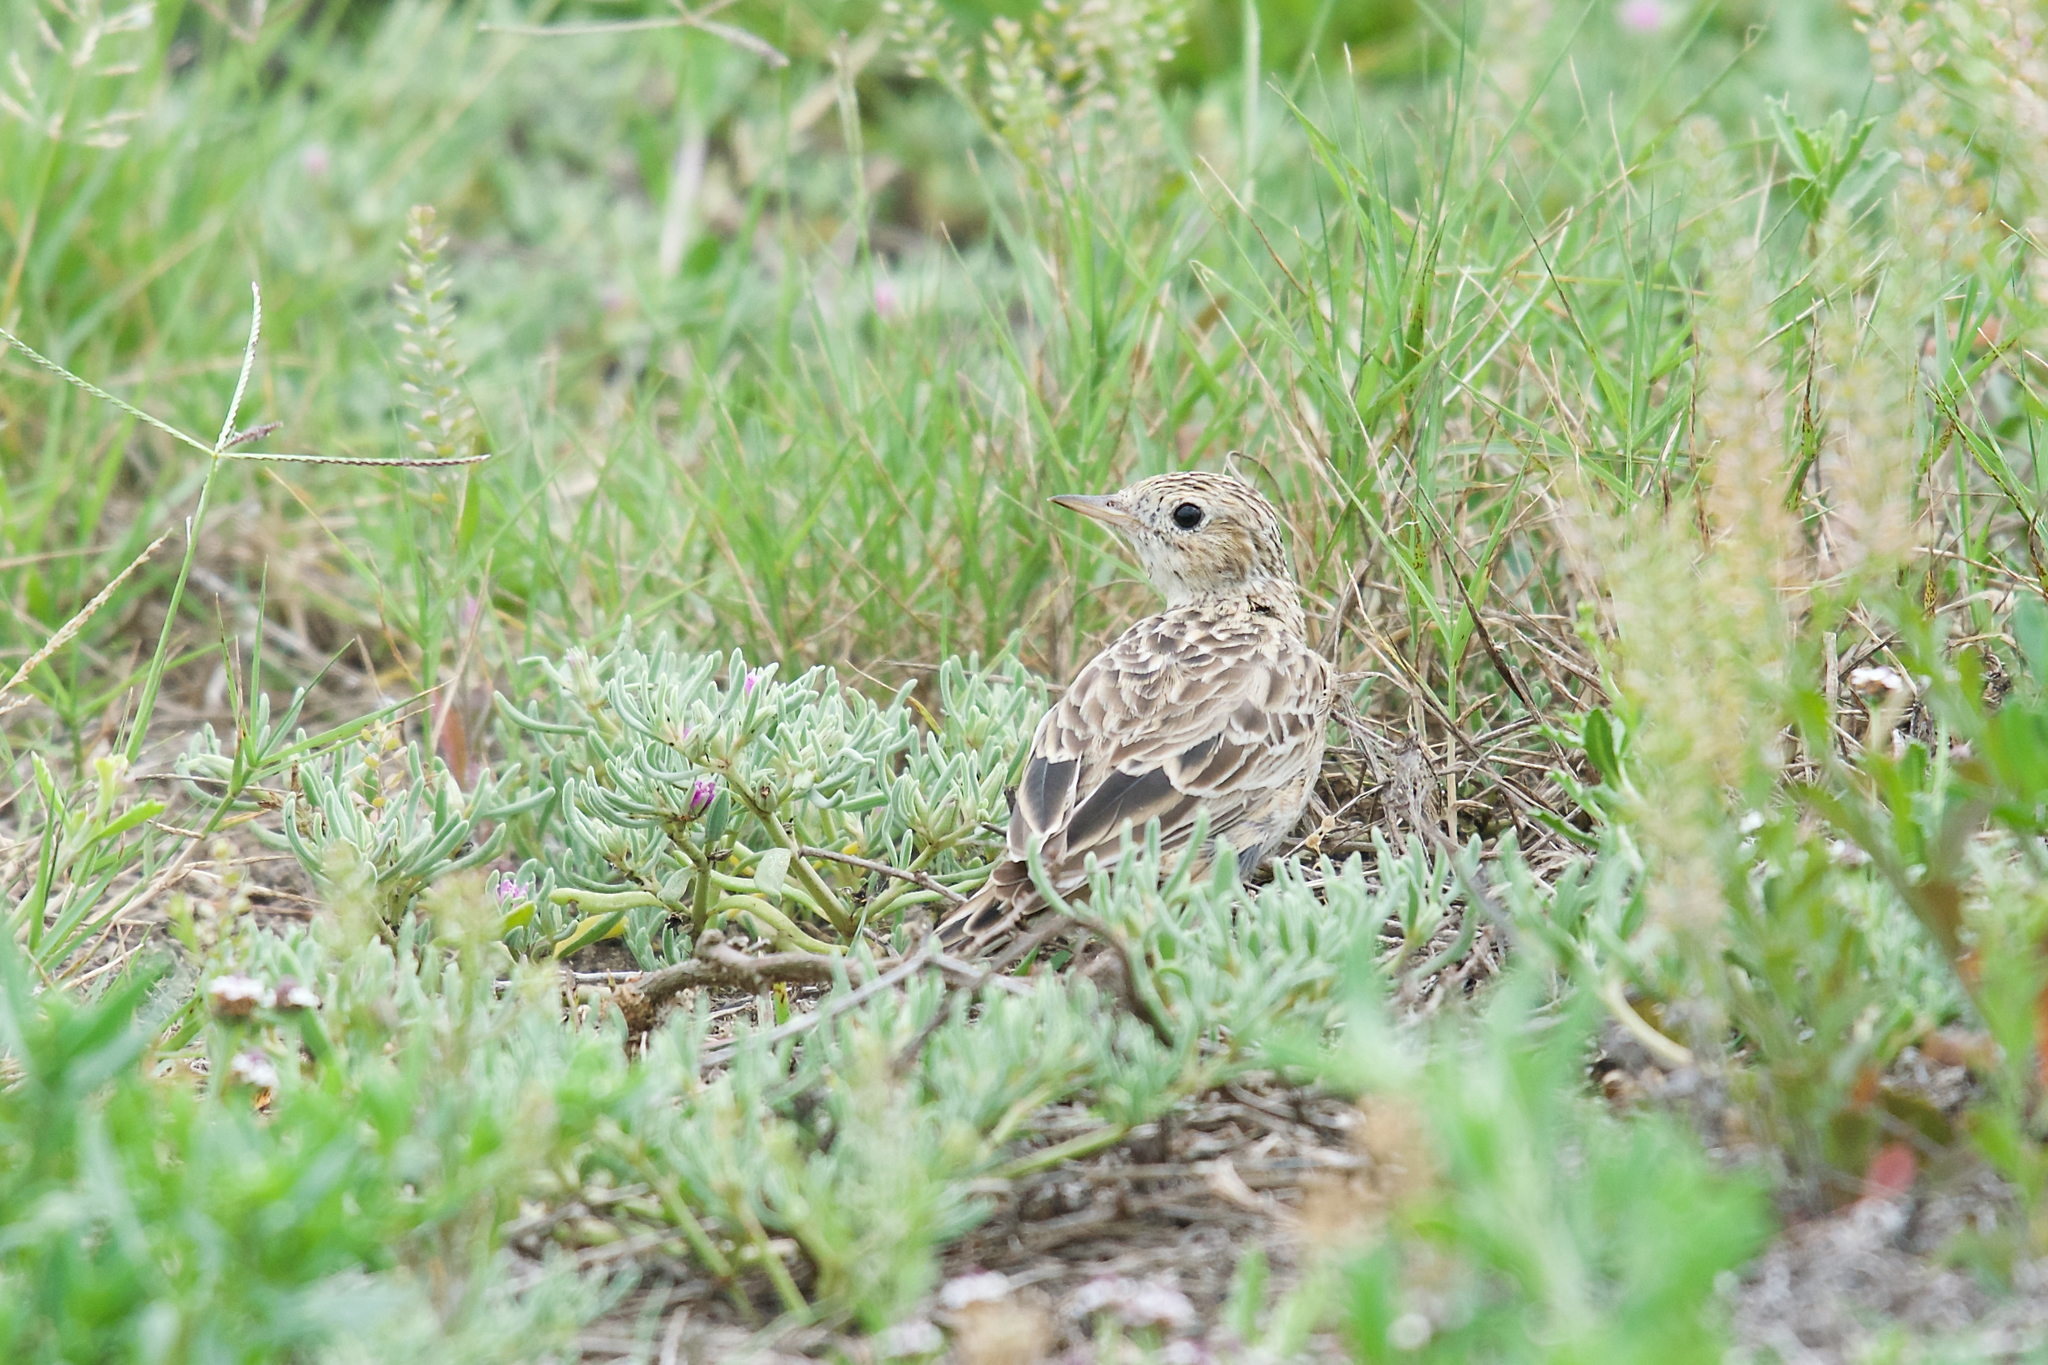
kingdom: Animalia
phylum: Chordata
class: Aves
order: Passeriformes
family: Motacillidae
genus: Anthus
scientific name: Anthus spragueii
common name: Sprague's pipit
